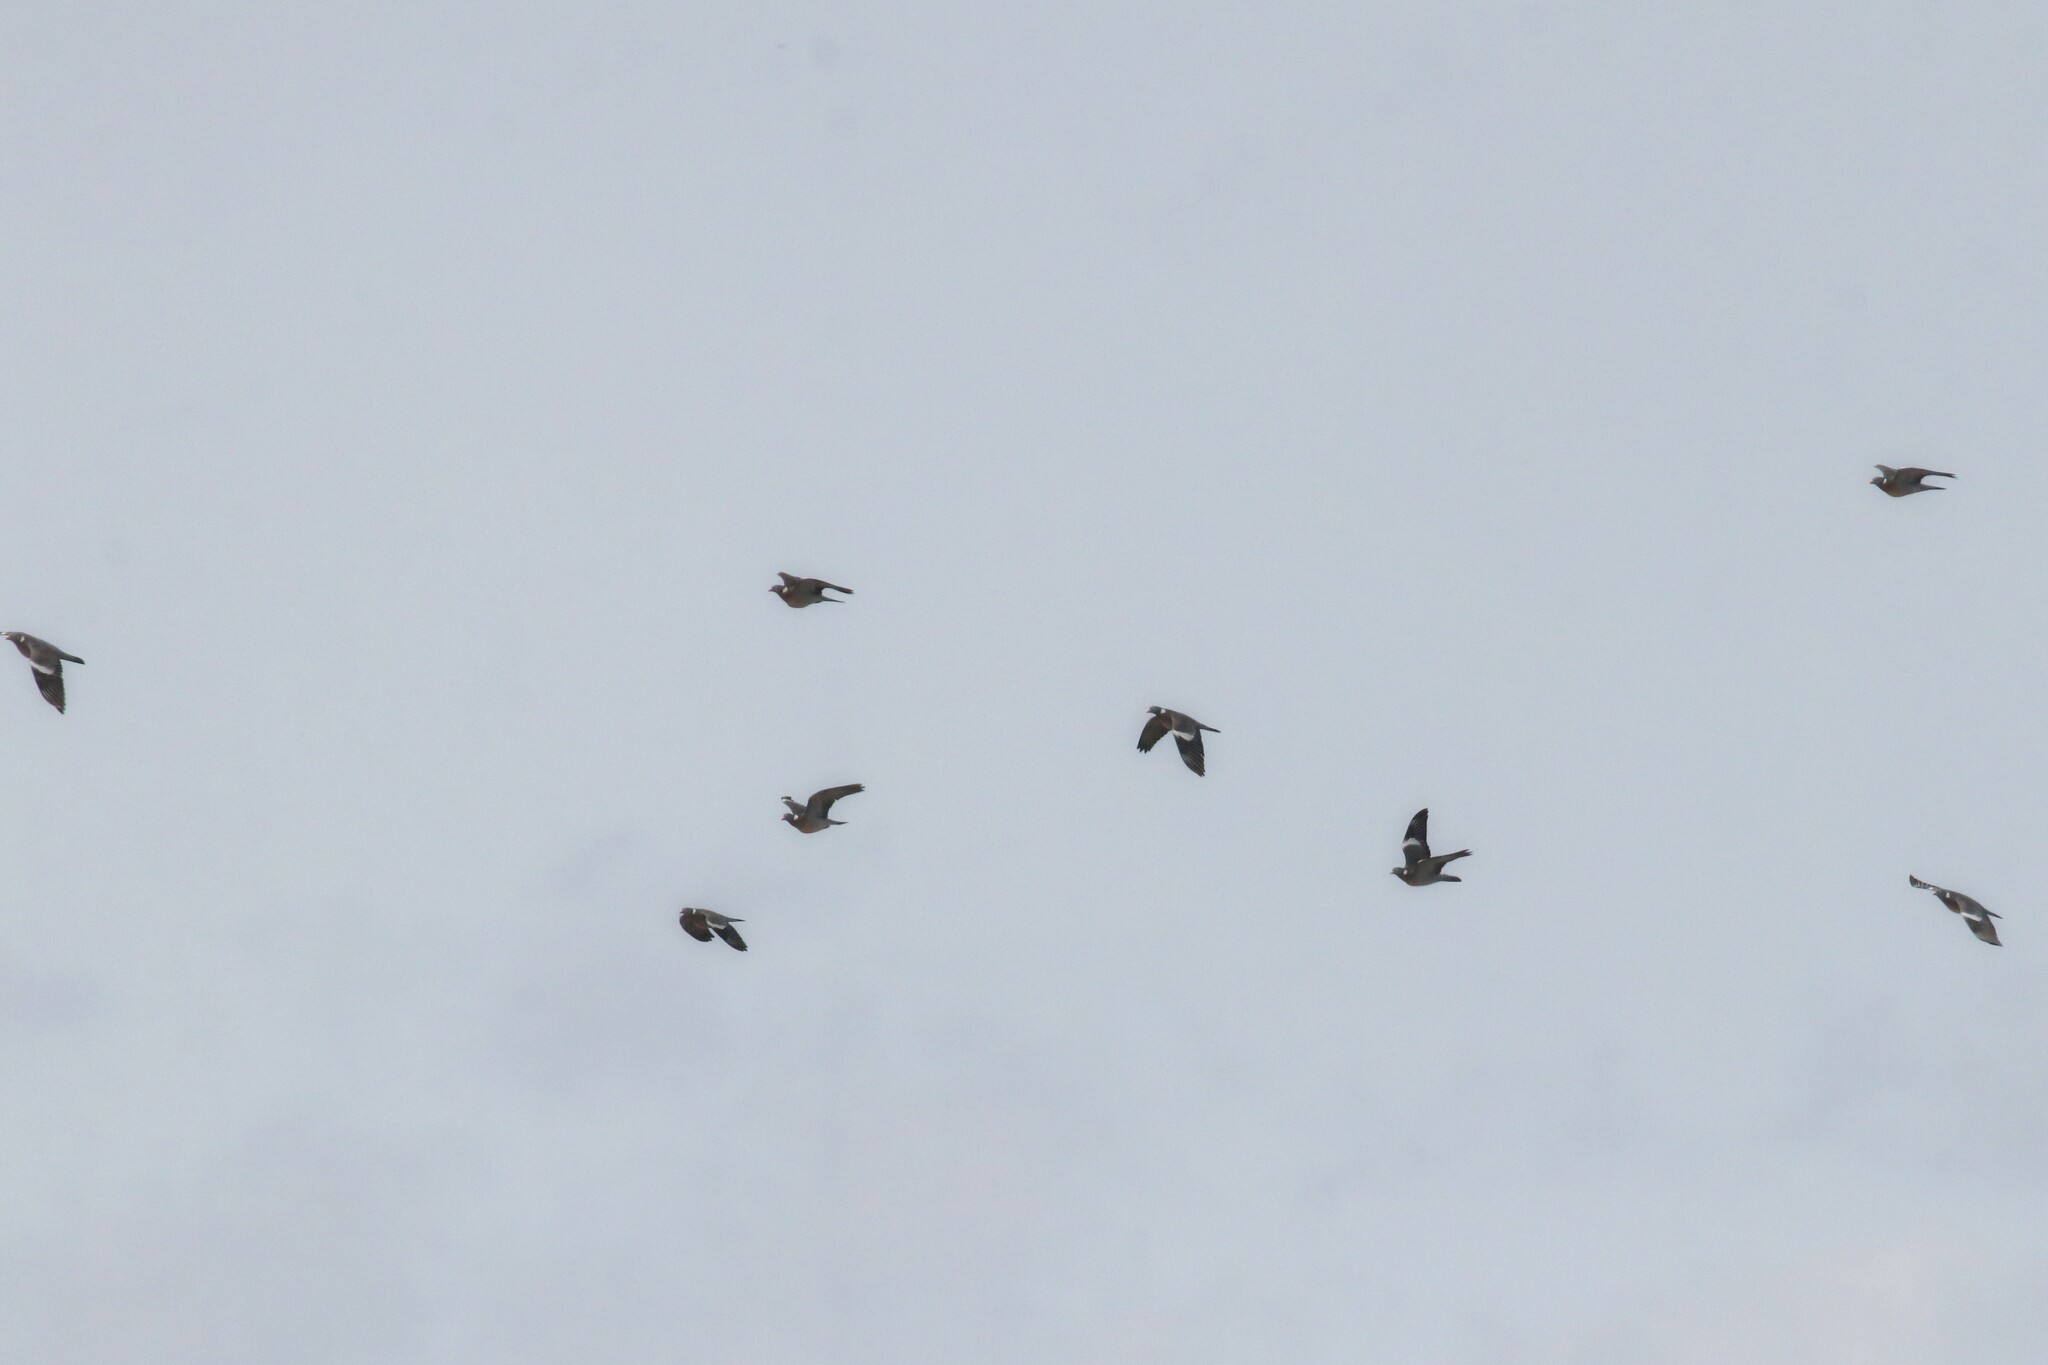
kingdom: Animalia
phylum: Chordata
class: Aves
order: Columbiformes
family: Columbidae
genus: Columba
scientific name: Columba palumbus
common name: Common wood pigeon
